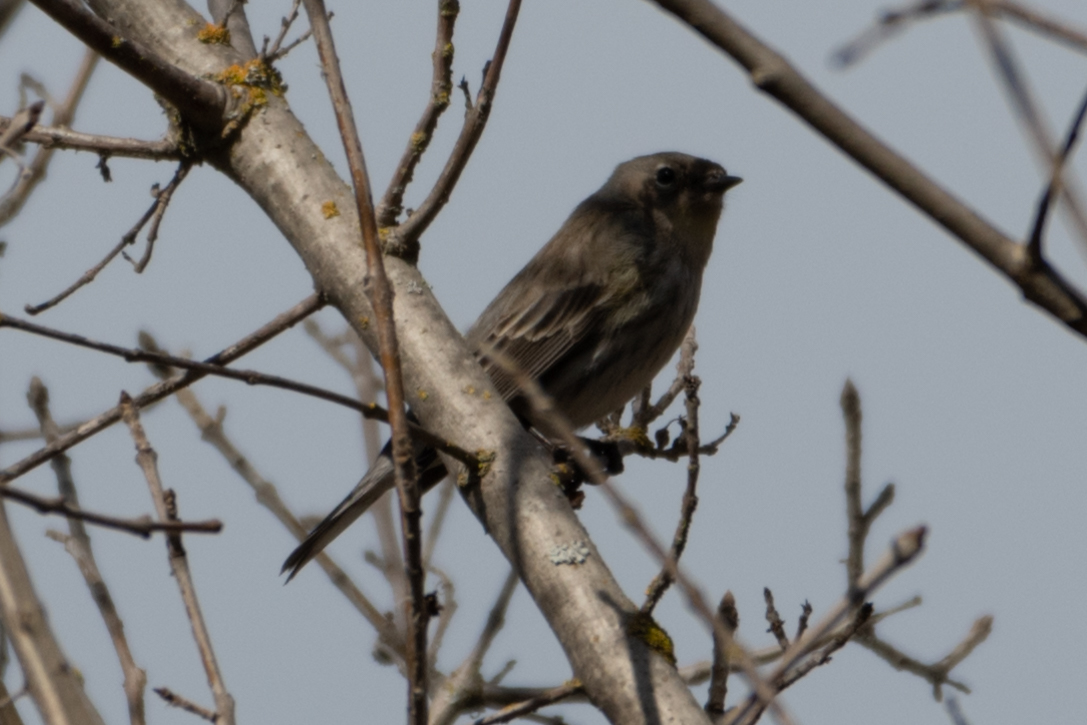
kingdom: Animalia
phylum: Chordata
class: Aves
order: Passeriformes
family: Parulidae
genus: Setophaga
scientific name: Setophaga coronata
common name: Myrtle warbler
